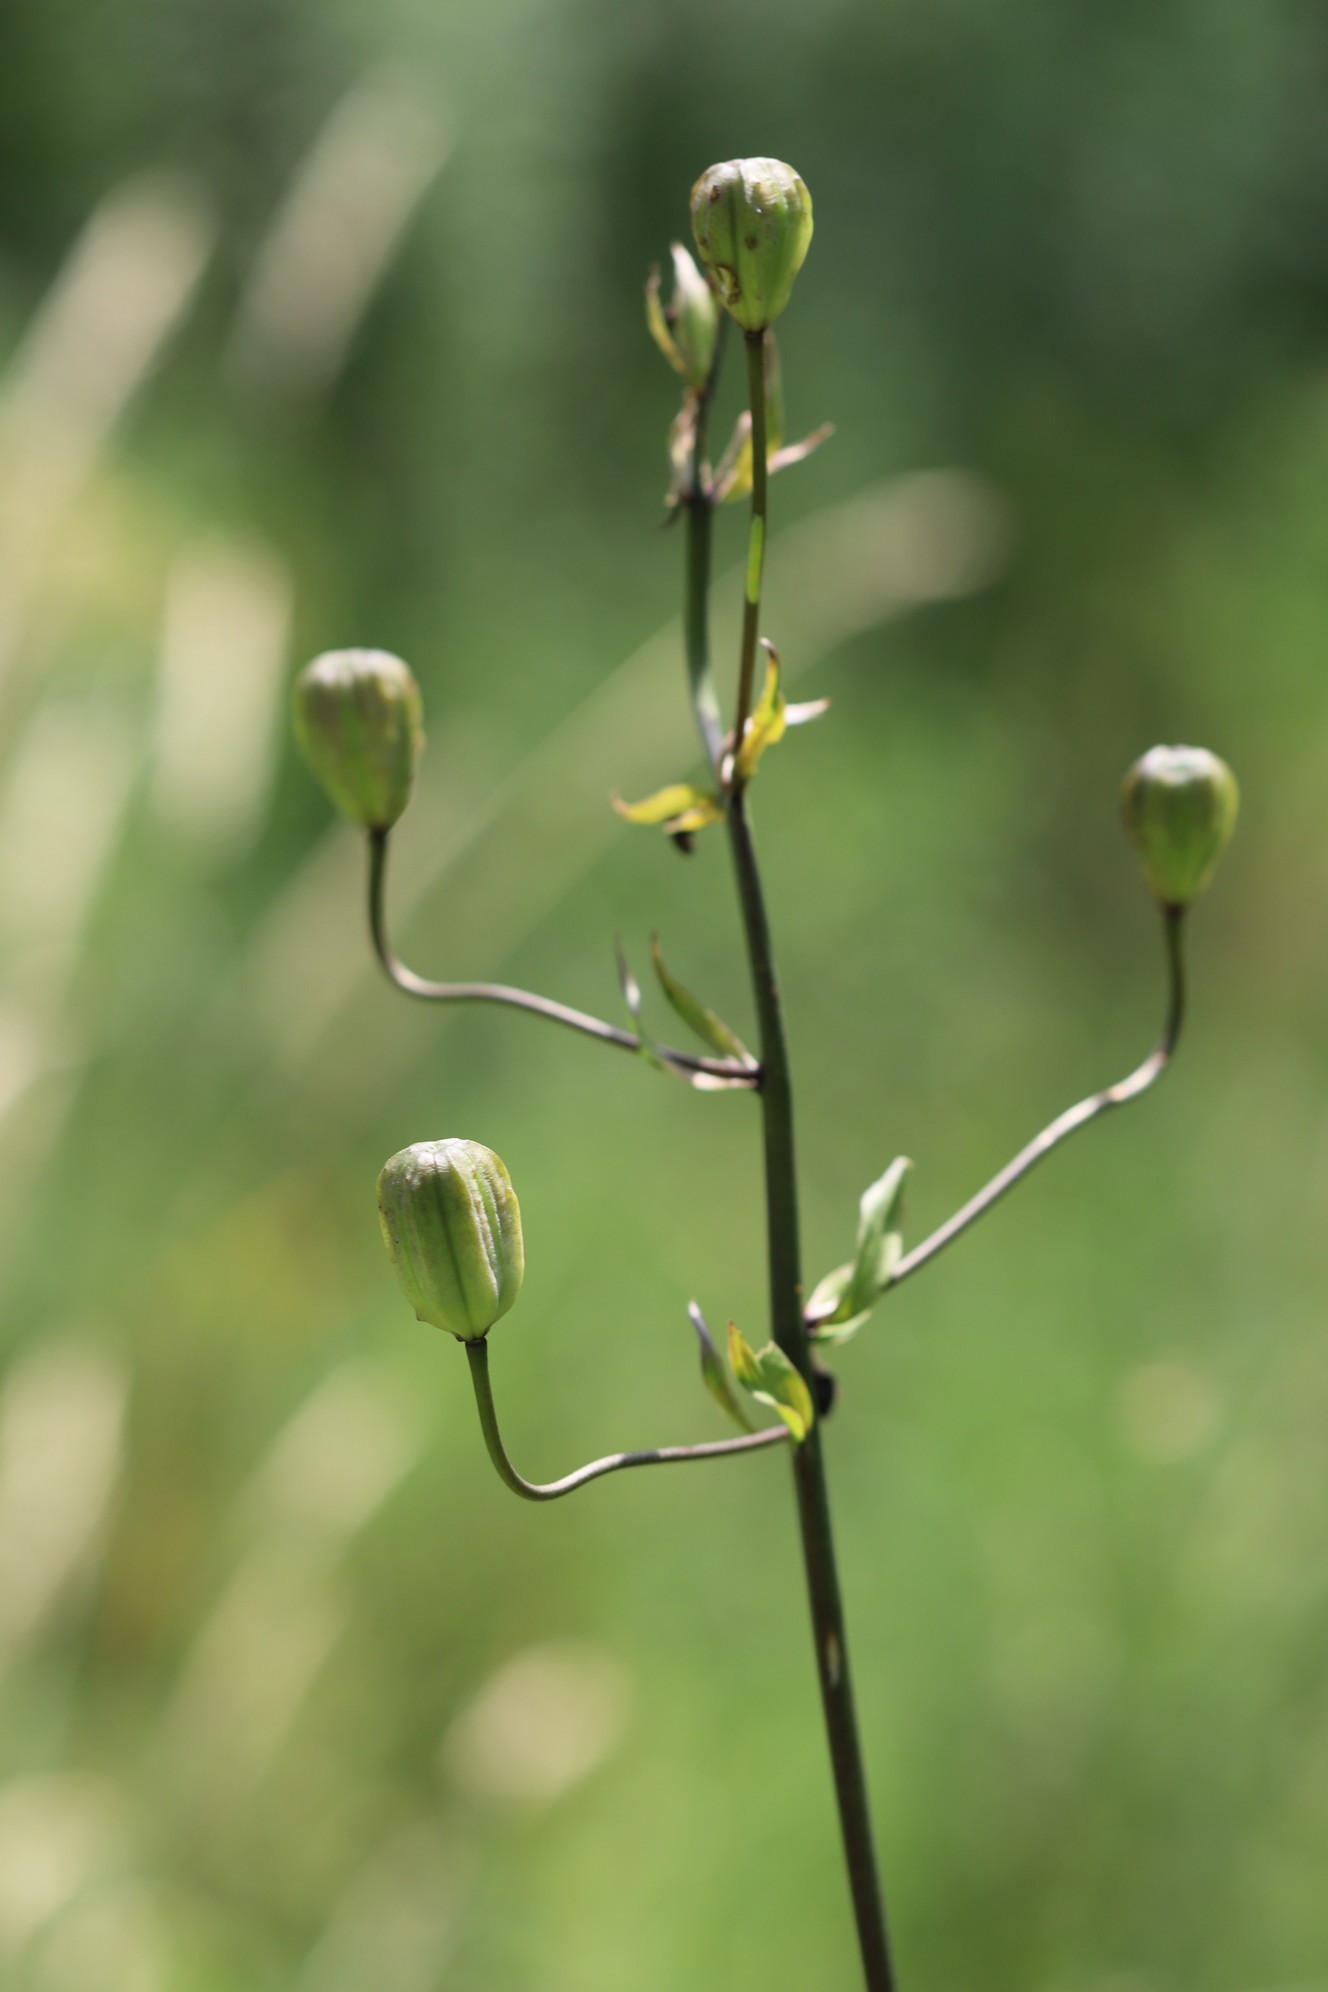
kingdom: Plantae
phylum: Tracheophyta
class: Liliopsida
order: Liliales
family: Liliaceae
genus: Lilium
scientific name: Lilium martagon
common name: Martagon lily
